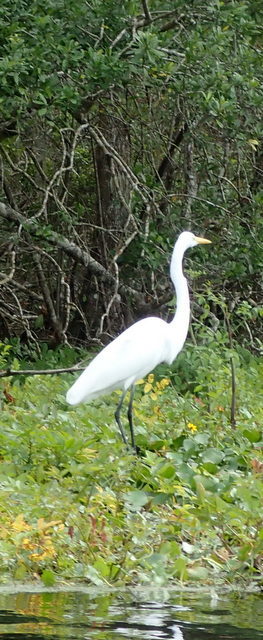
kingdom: Animalia
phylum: Chordata
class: Aves
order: Pelecaniformes
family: Ardeidae
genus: Ardea
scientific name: Ardea alba
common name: Great egret
